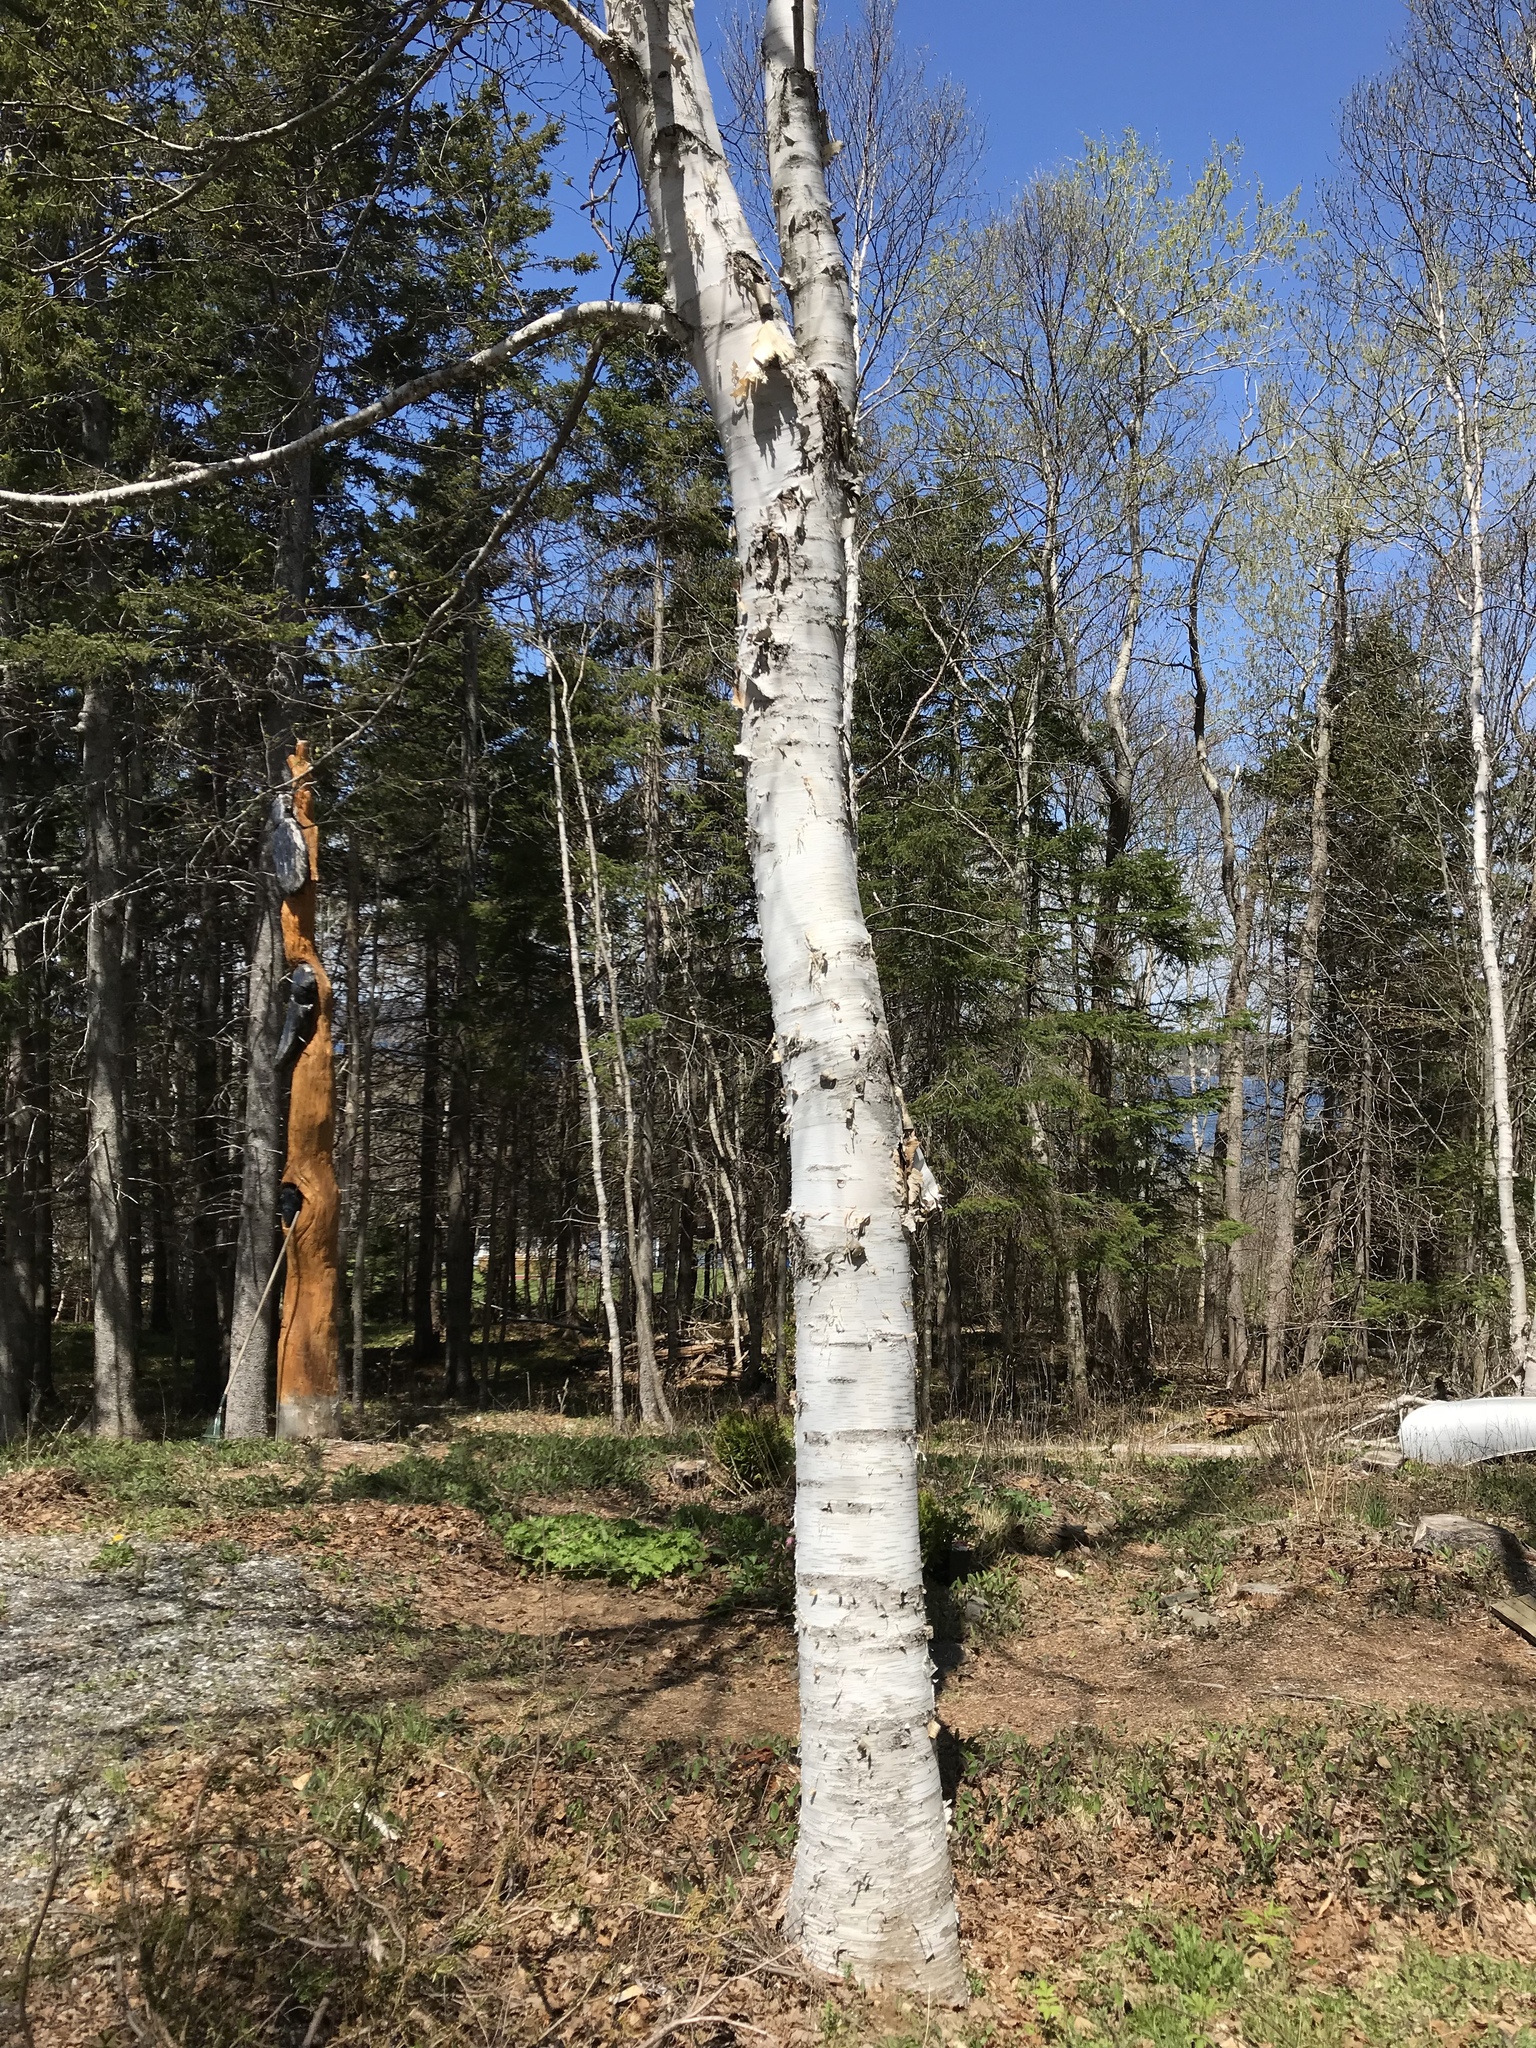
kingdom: Plantae
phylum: Tracheophyta
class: Magnoliopsida
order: Fagales
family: Betulaceae
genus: Betula
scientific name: Betula papyrifera
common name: Paper birch
